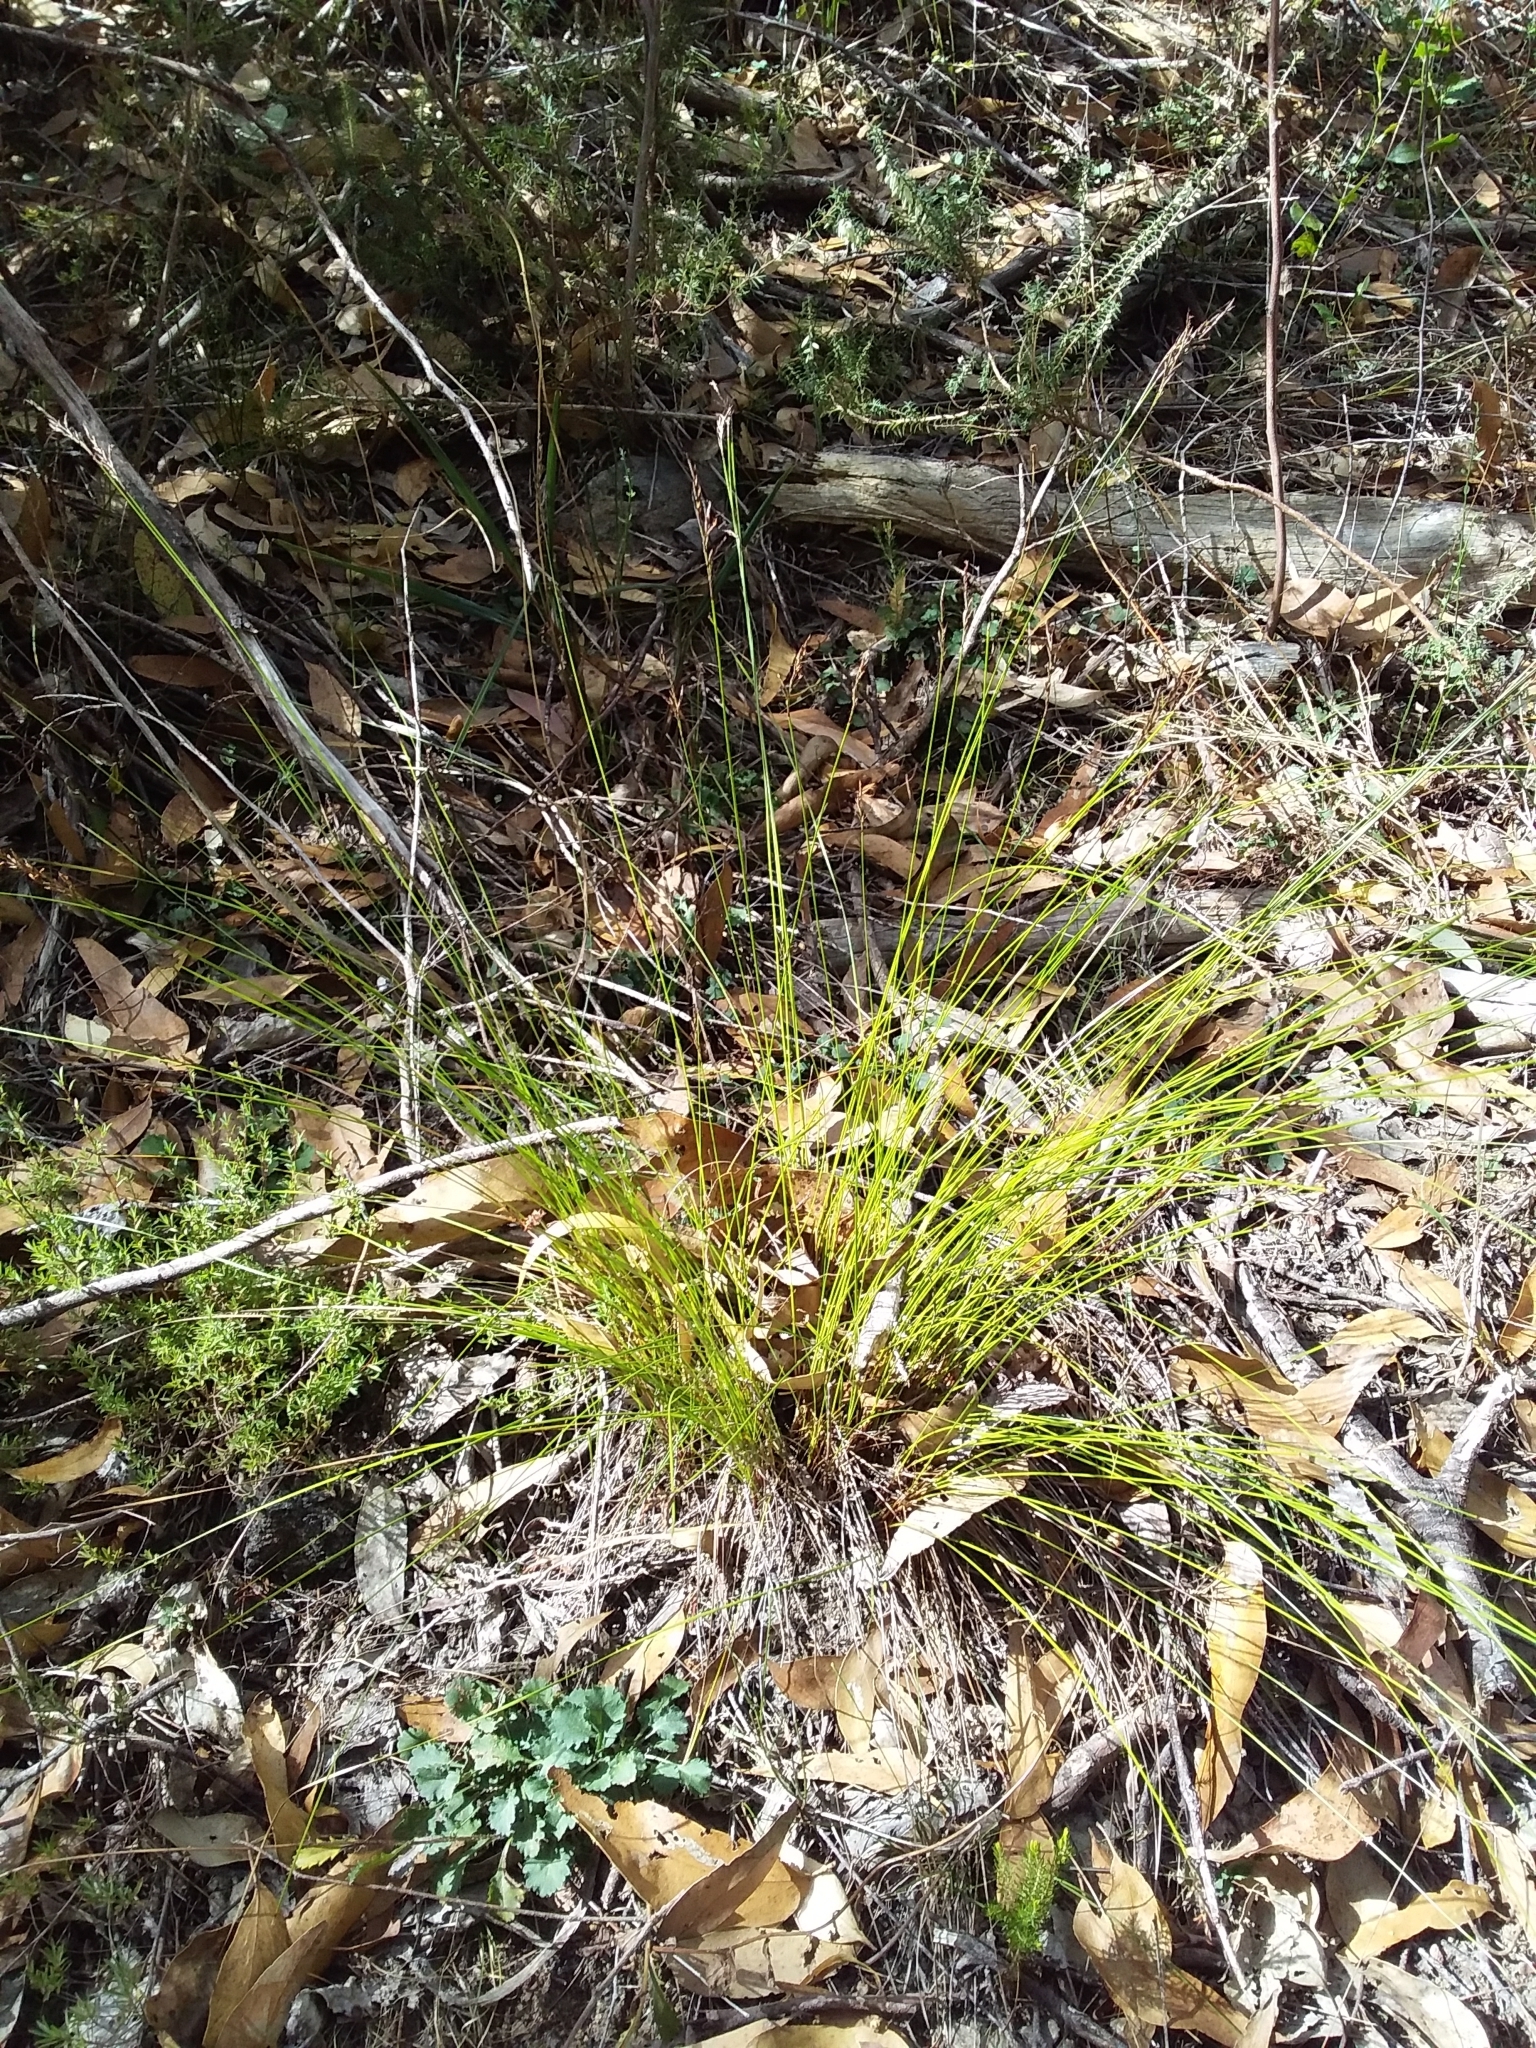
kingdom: Plantae
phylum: Tracheophyta
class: Liliopsida
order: Poales
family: Cyperaceae
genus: Lepidosperma
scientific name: Lepidosperma semiteres
